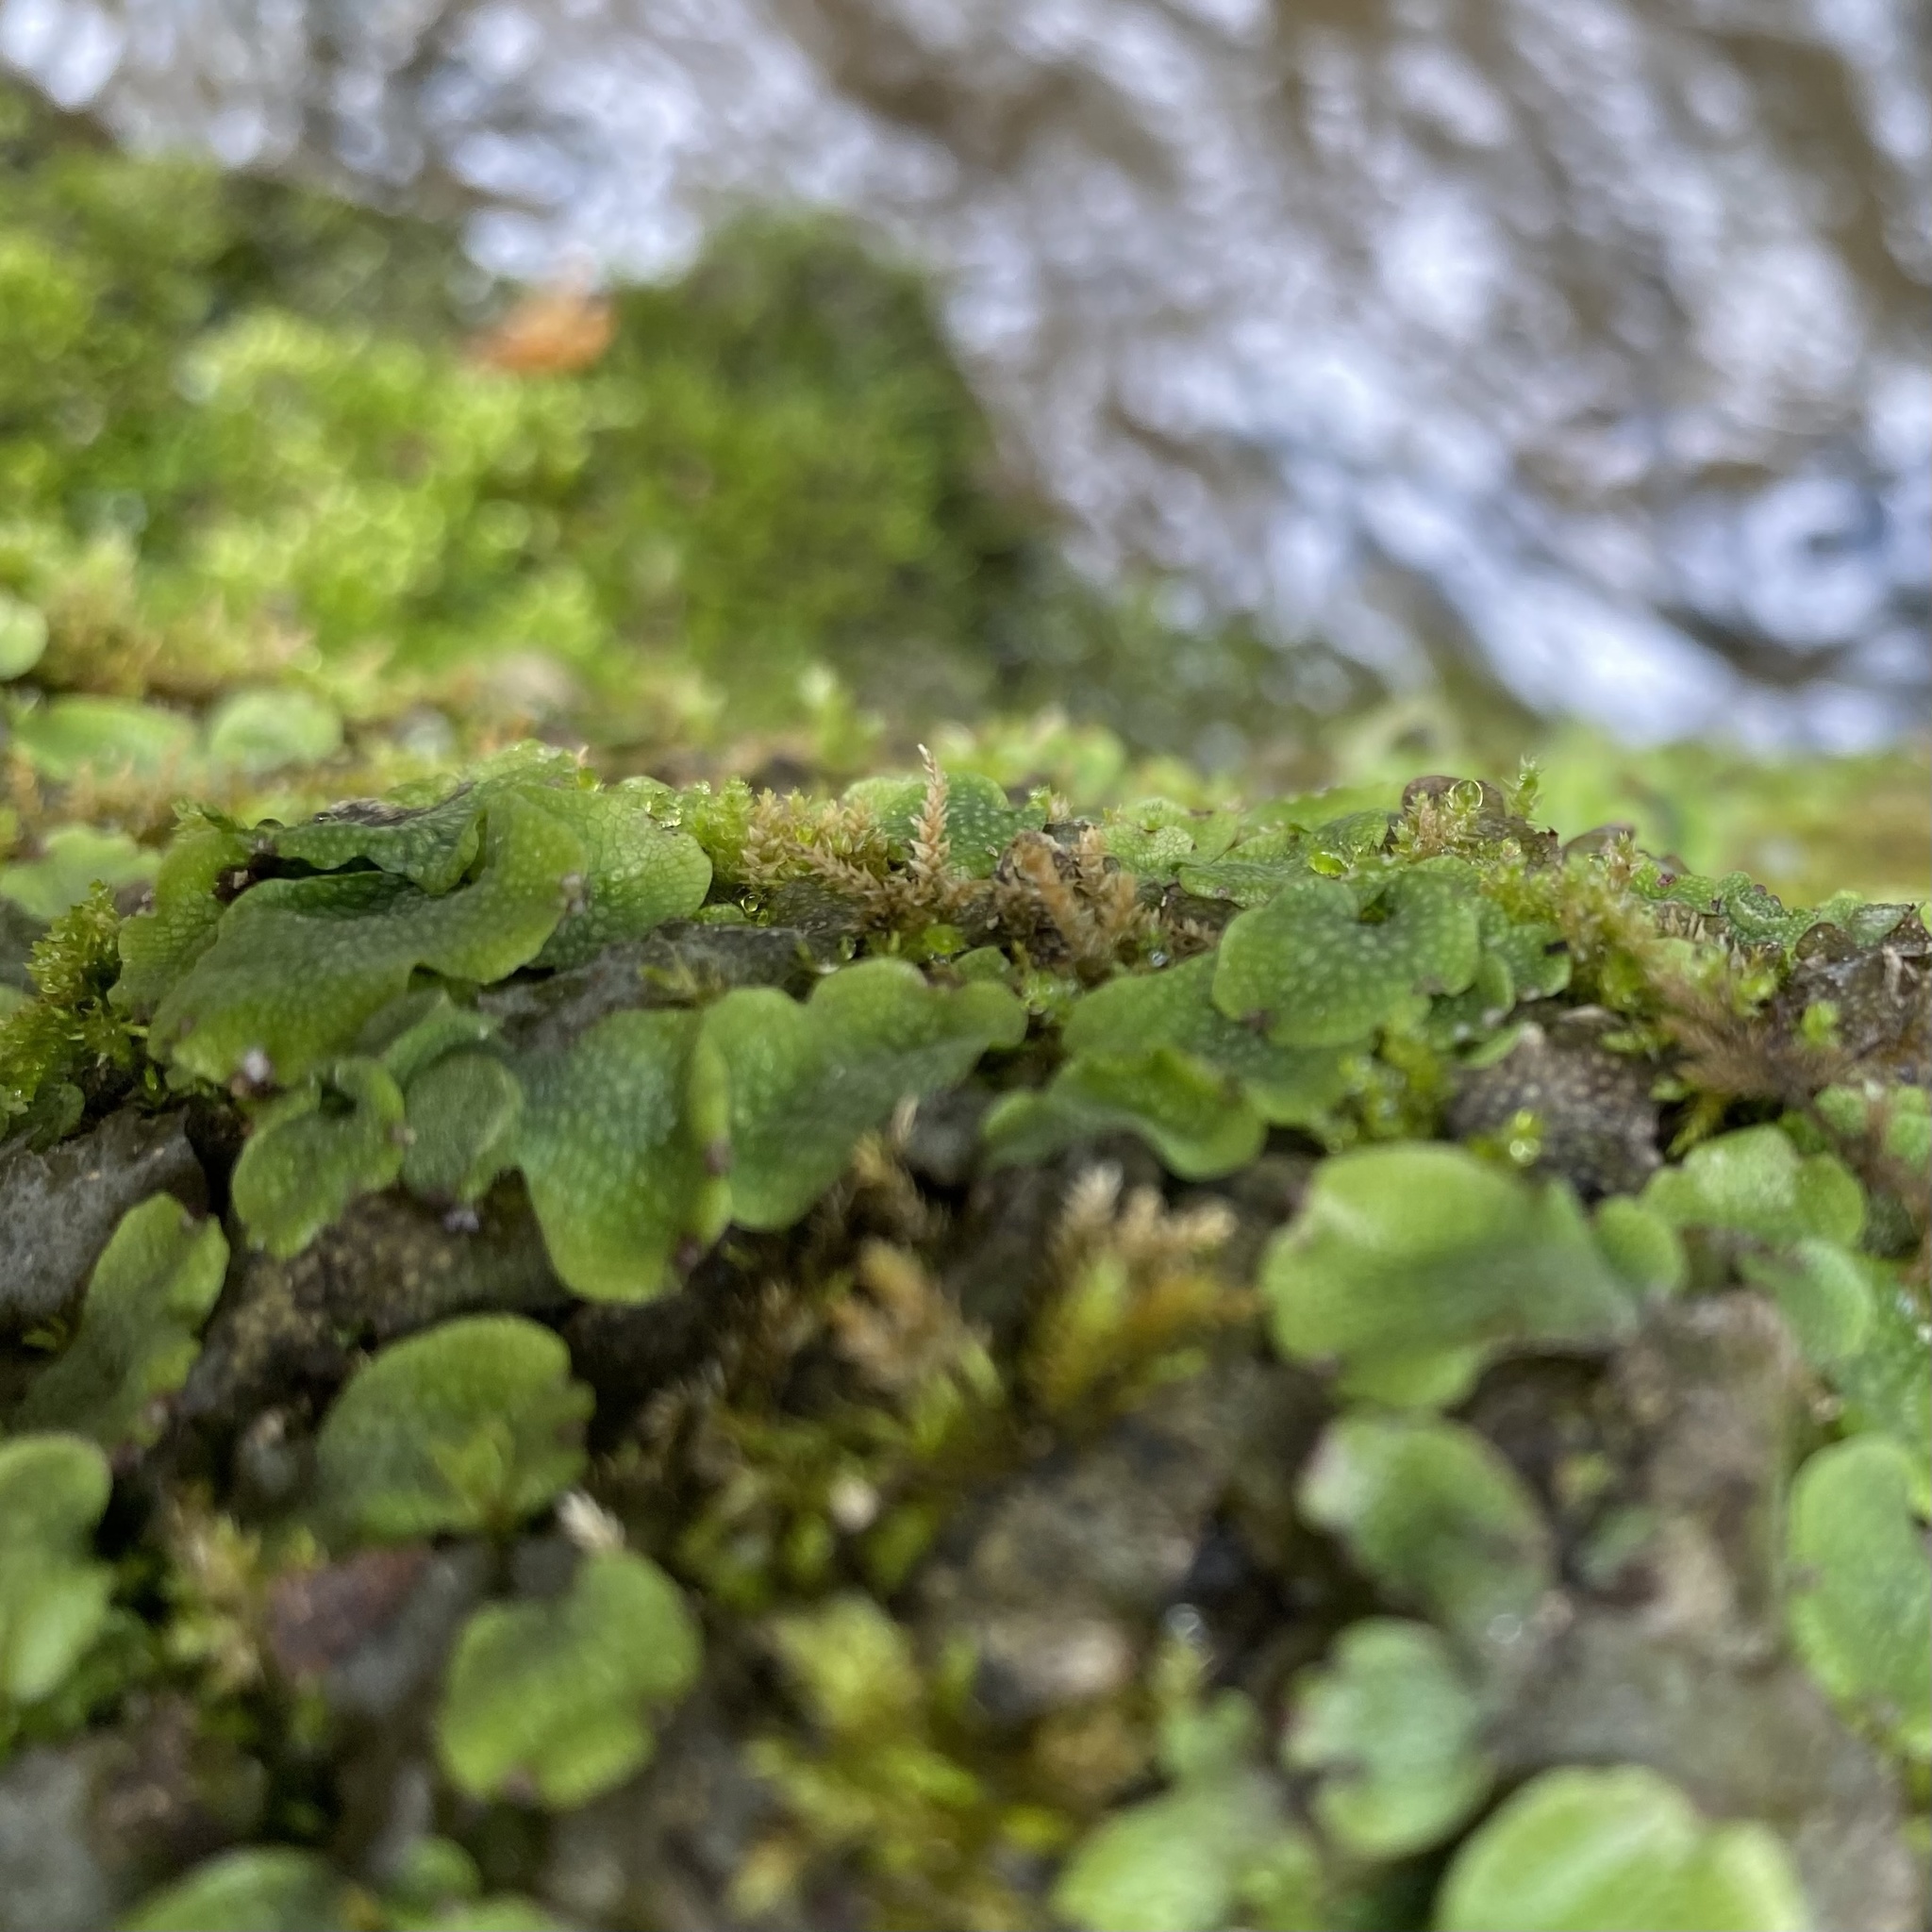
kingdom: Plantae
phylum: Marchantiophyta
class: Marchantiopsida
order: Marchantiales
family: Conocephalaceae
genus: Conocephalum
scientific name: Conocephalum salebrosum
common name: Cat-tongue liverwort
